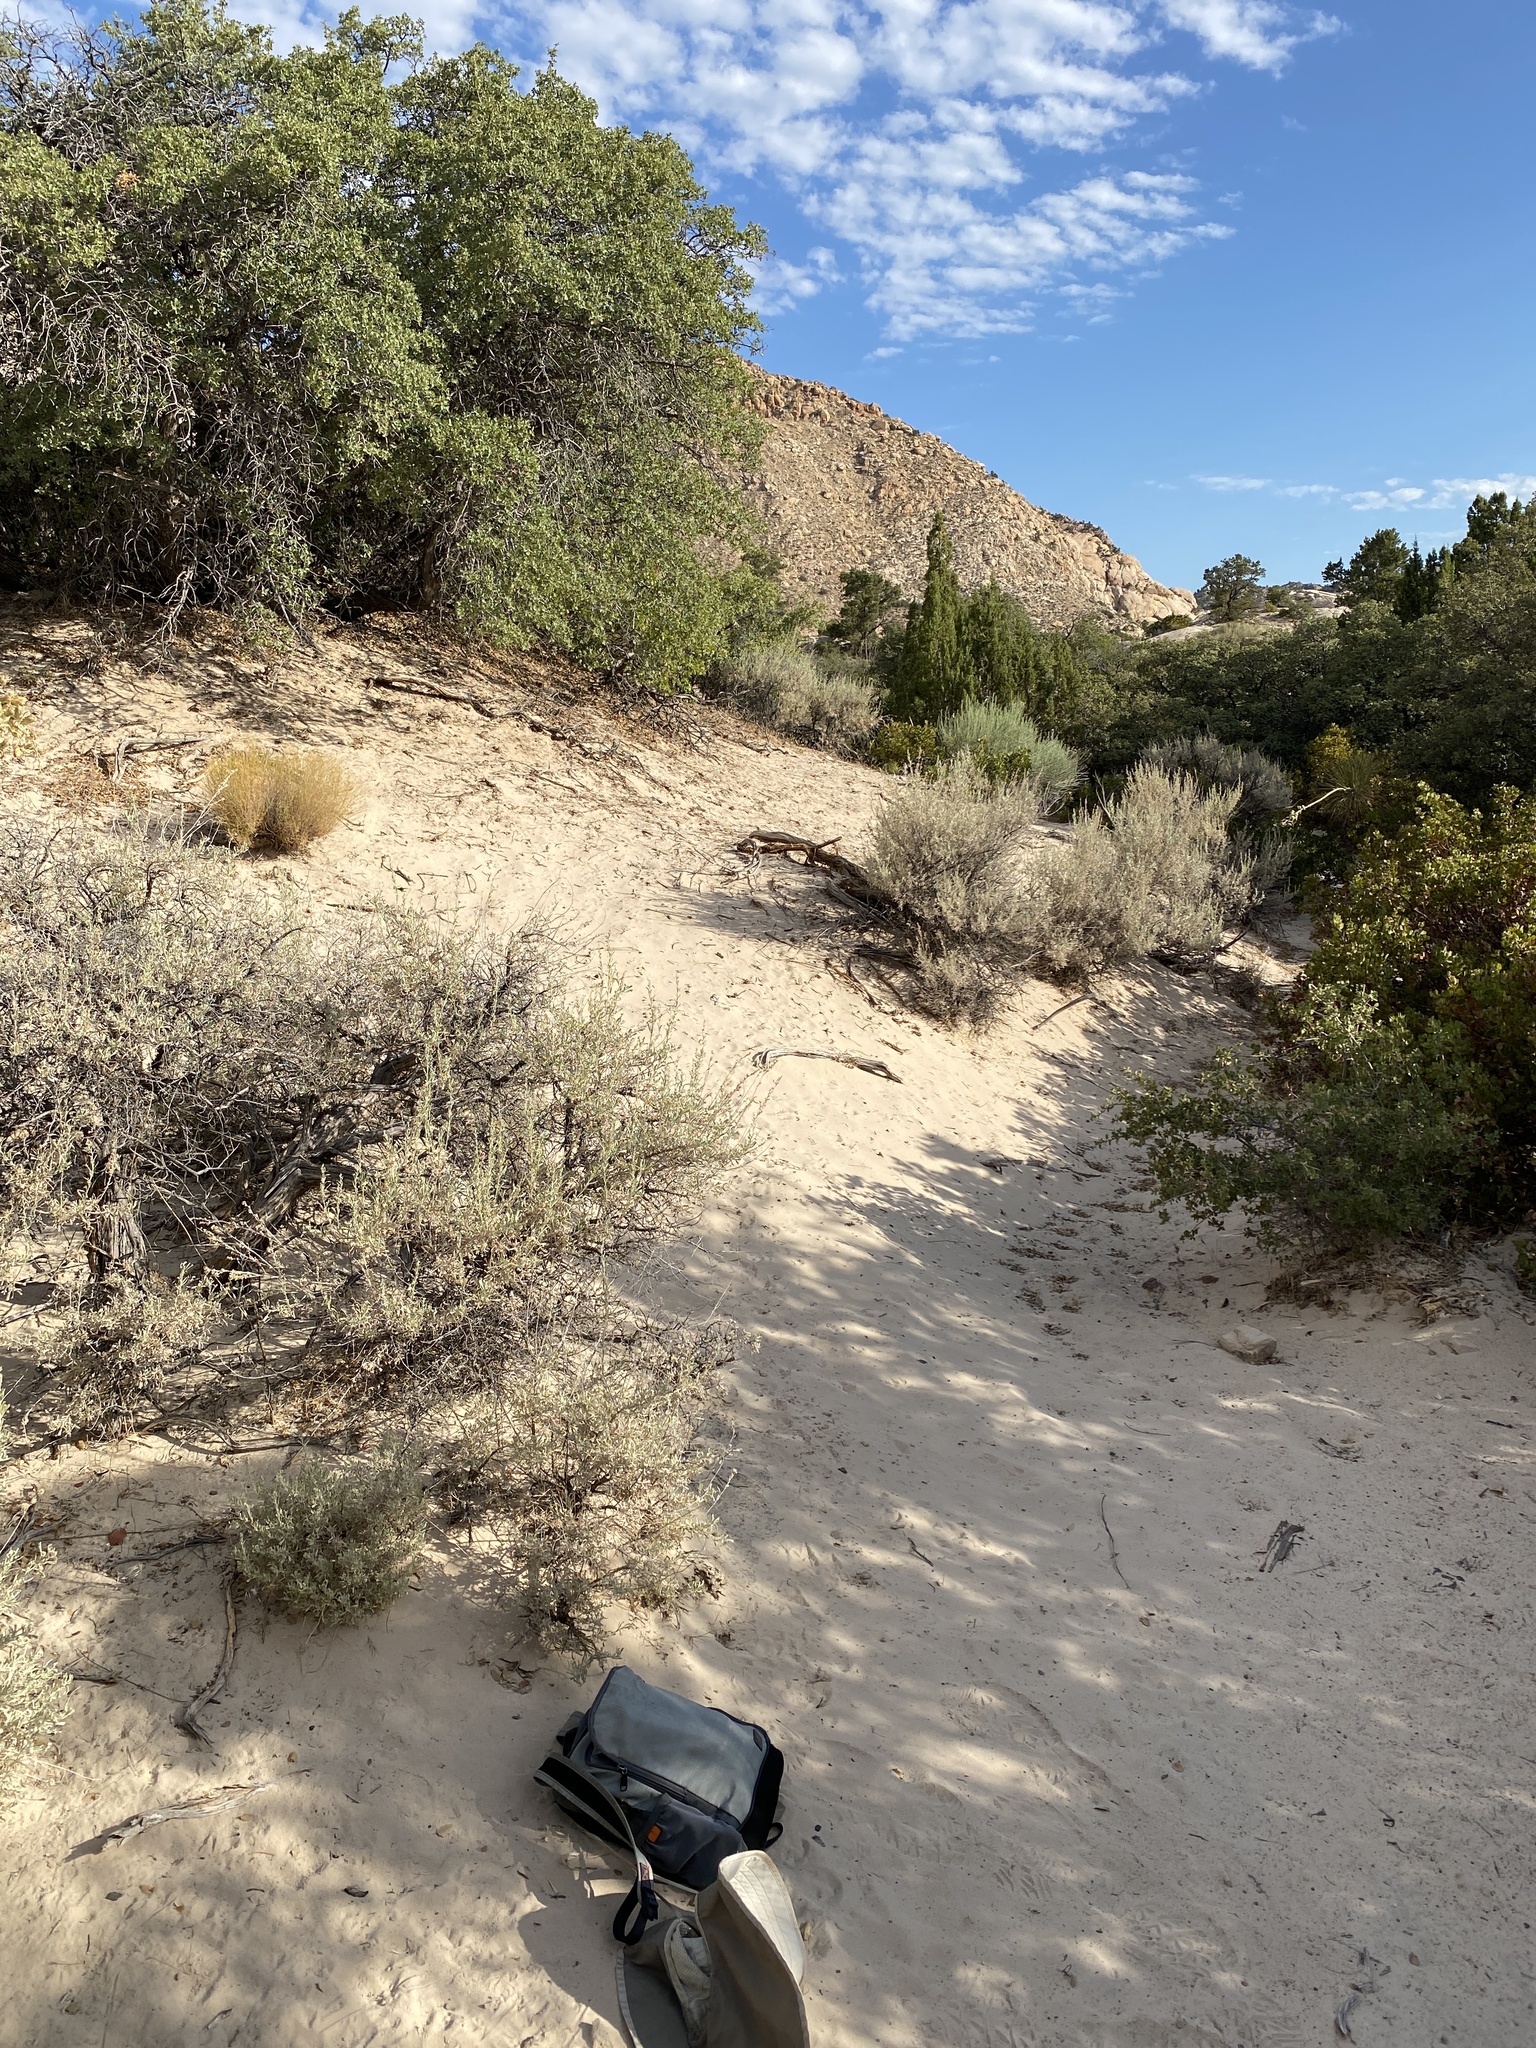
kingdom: Plantae
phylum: Tracheophyta
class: Magnoliopsida
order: Asterales
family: Asteraceae
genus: Artemisia
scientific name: Artemisia tridentata
